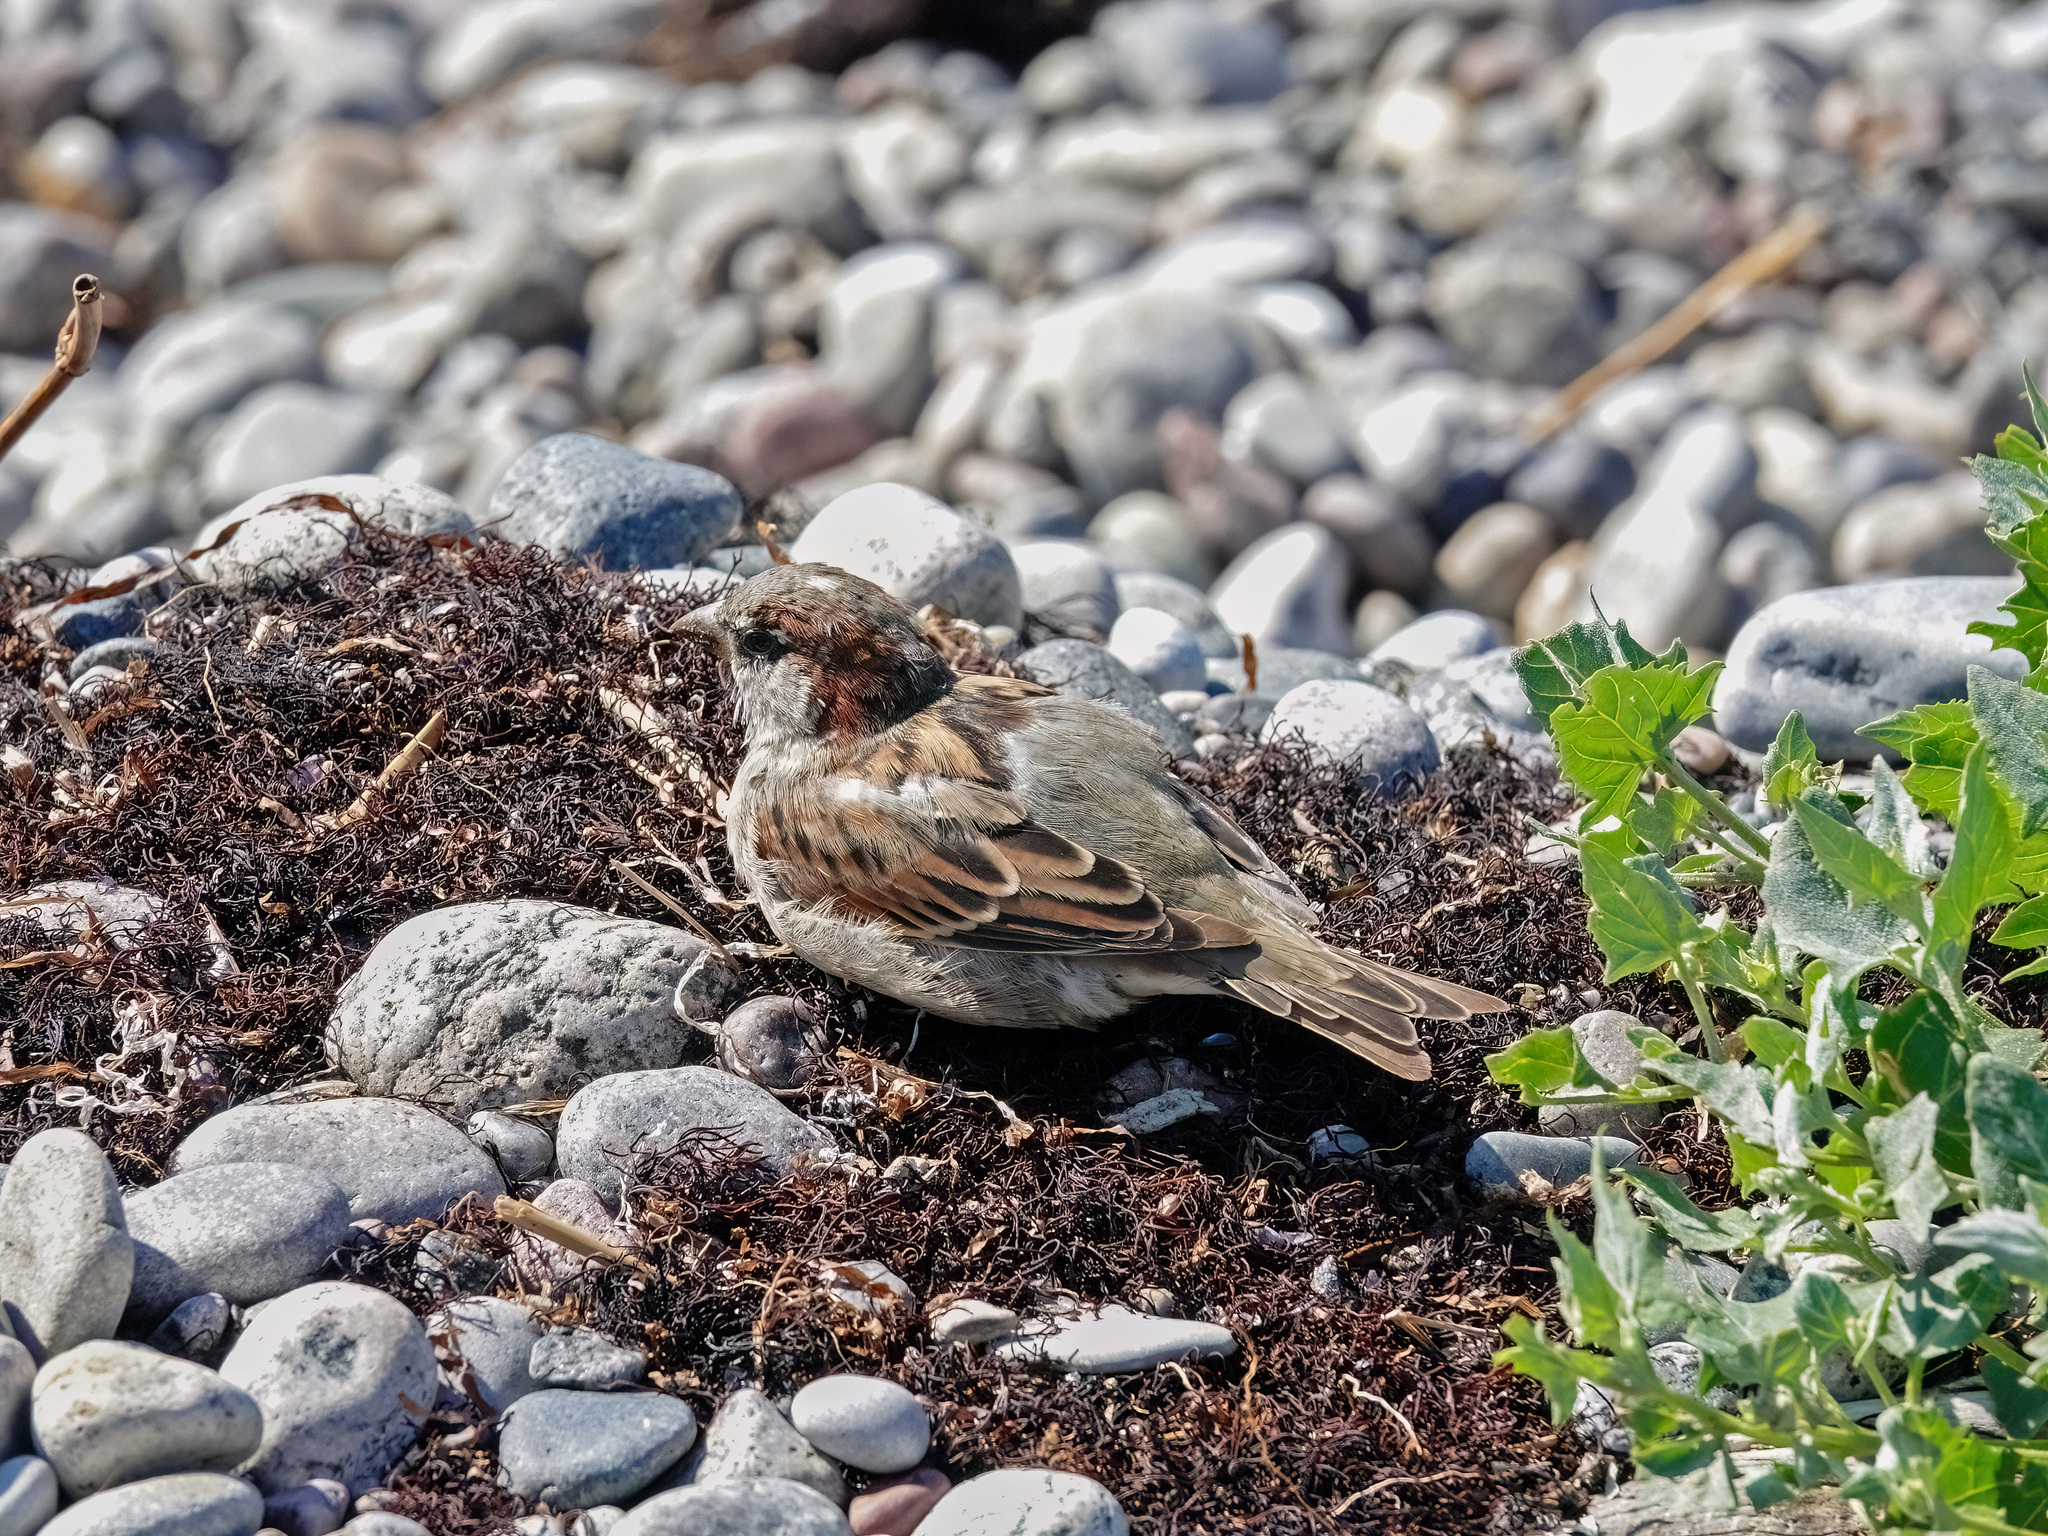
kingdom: Animalia
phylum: Chordata
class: Aves
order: Passeriformes
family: Passeridae
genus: Passer
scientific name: Passer domesticus
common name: House sparrow
